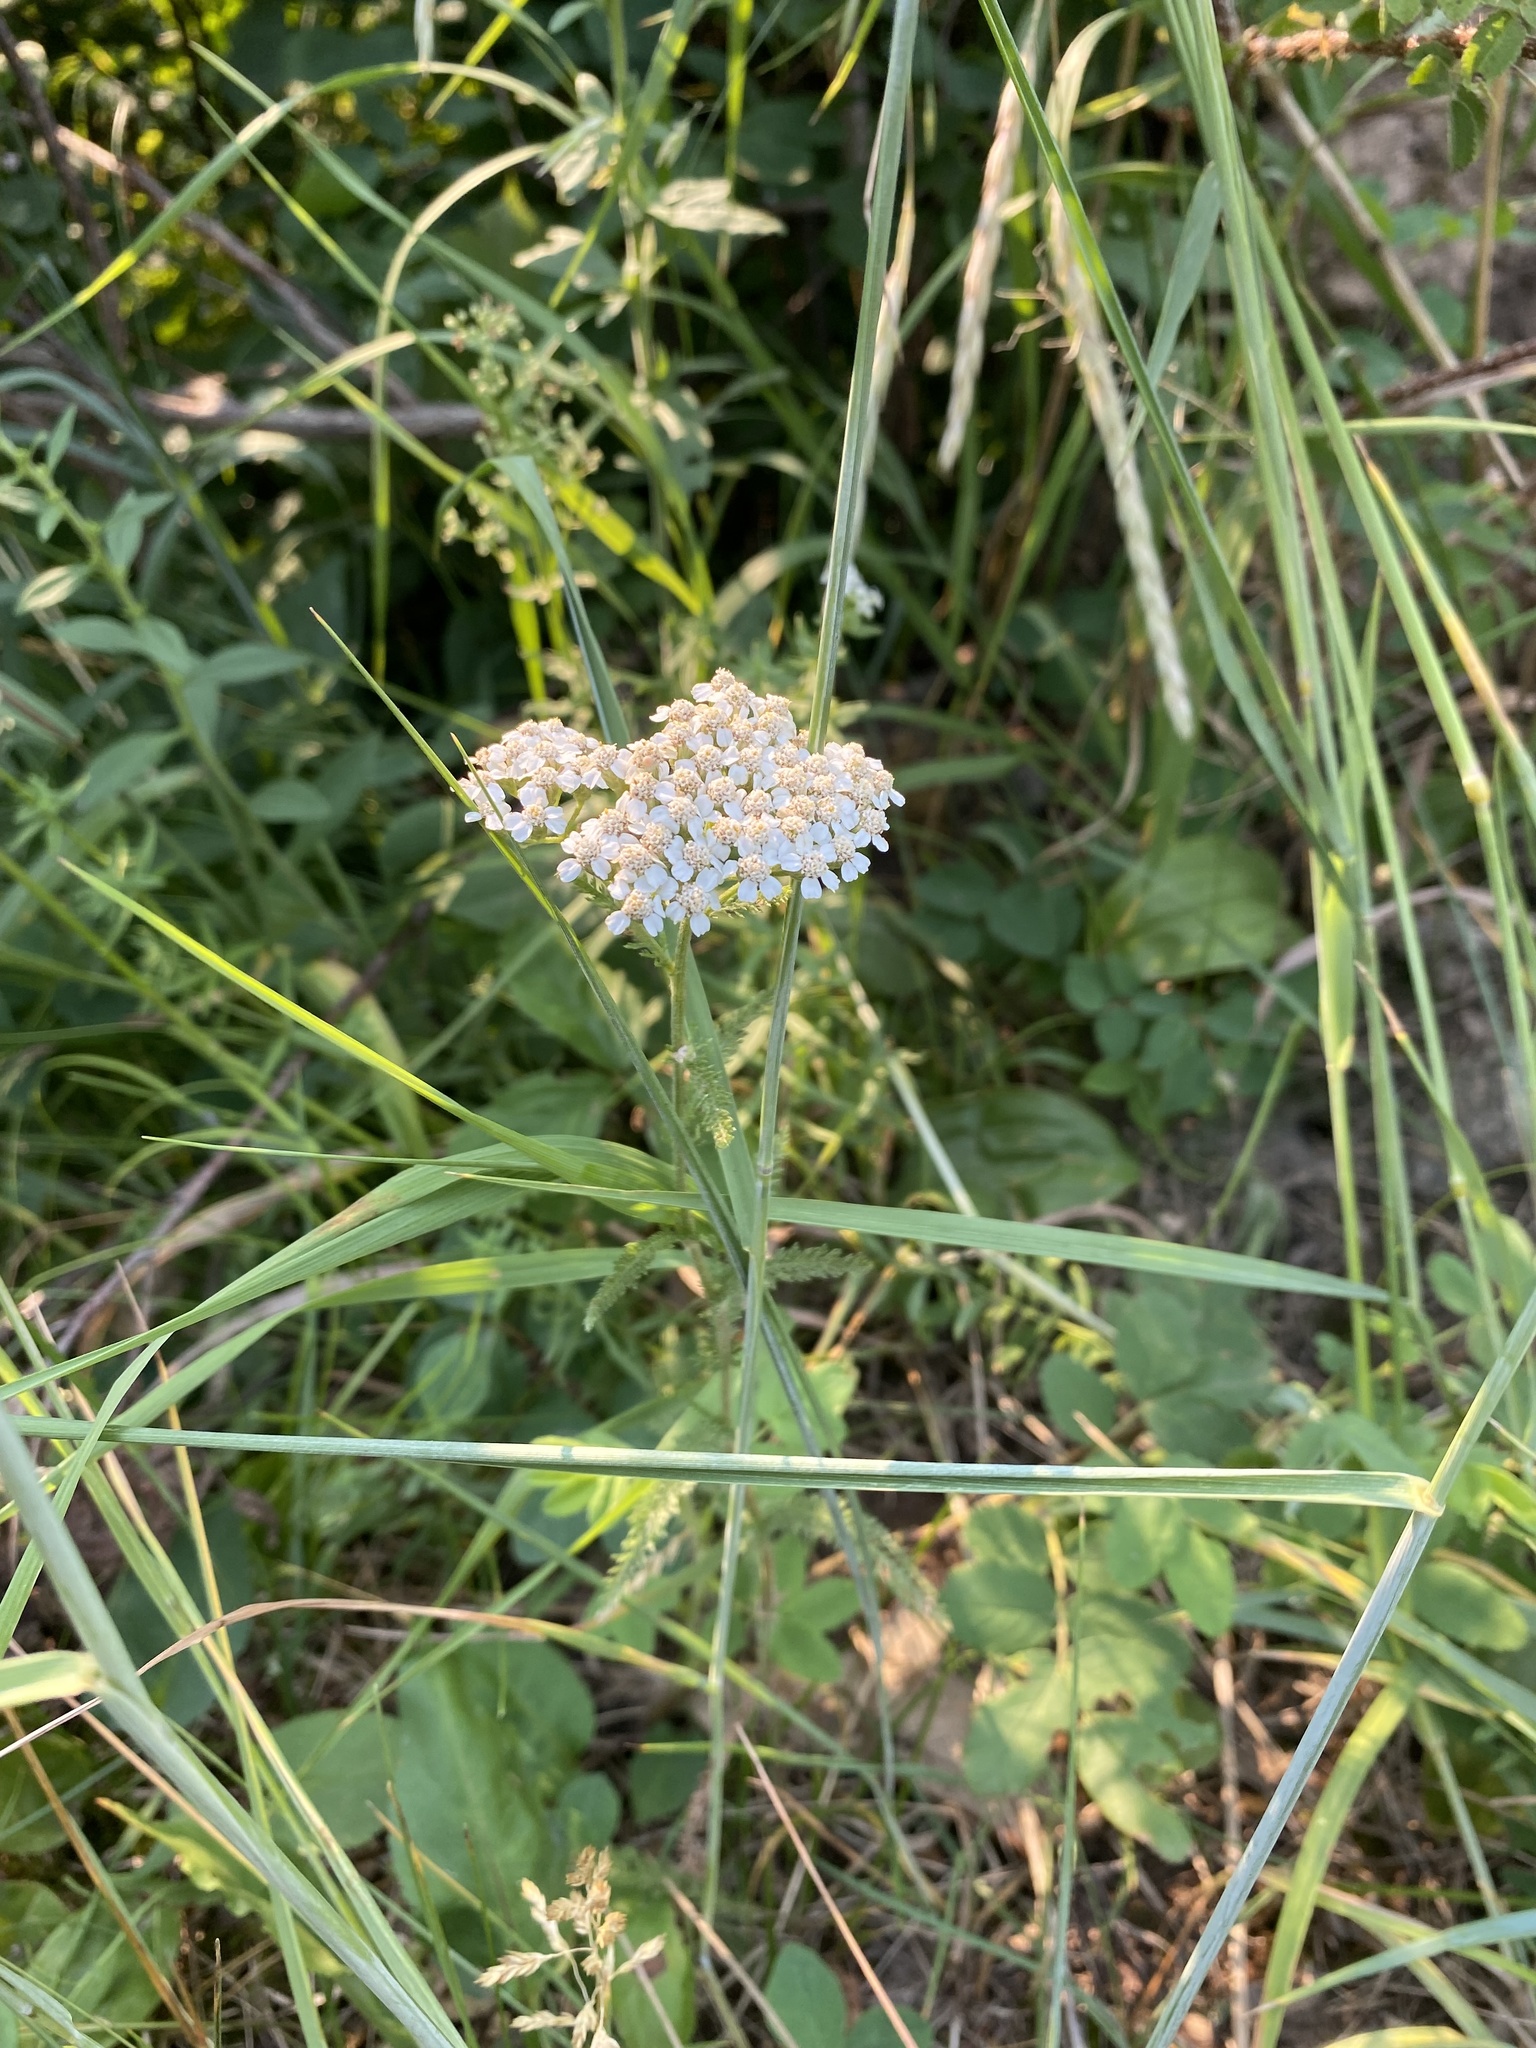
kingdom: Plantae
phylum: Tracheophyta
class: Magnoliopsida
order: Asterales
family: Asteraceae
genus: Achillea
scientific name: Achillea millefolium
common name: Yarrow
